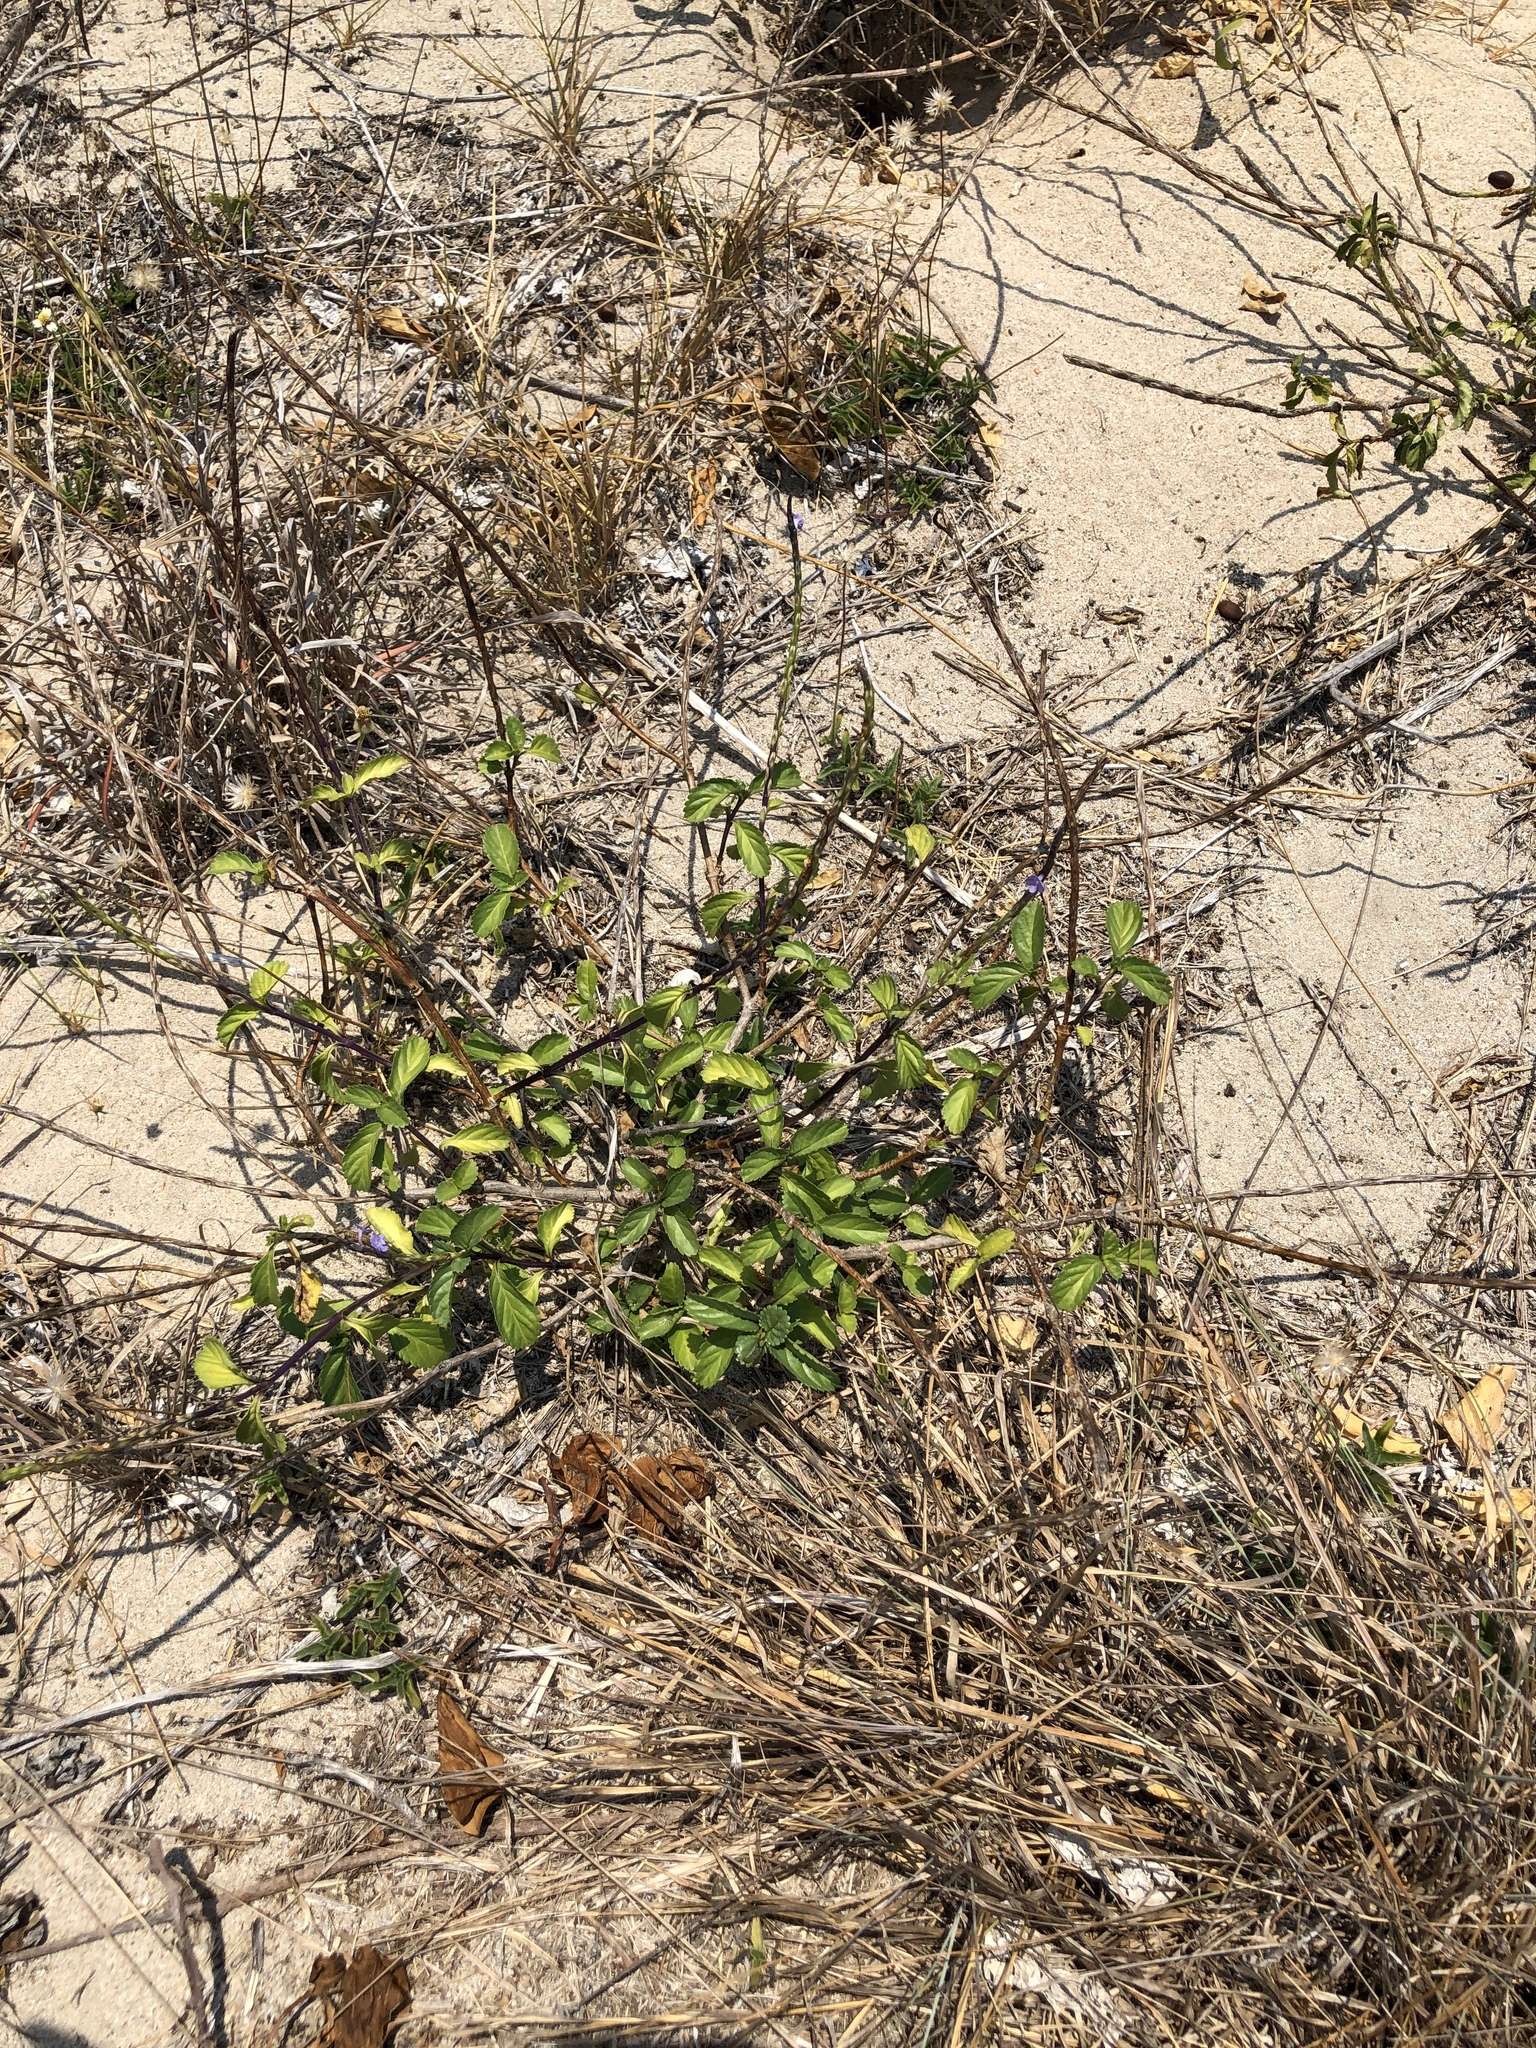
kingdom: Plantae
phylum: Tracheophyta
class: Magnoliopsida
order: Lamiales
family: Verbenaceae
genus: Stachytarpheta
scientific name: Stachytarpheta jamaicensis
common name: Light-blue snakeweed
